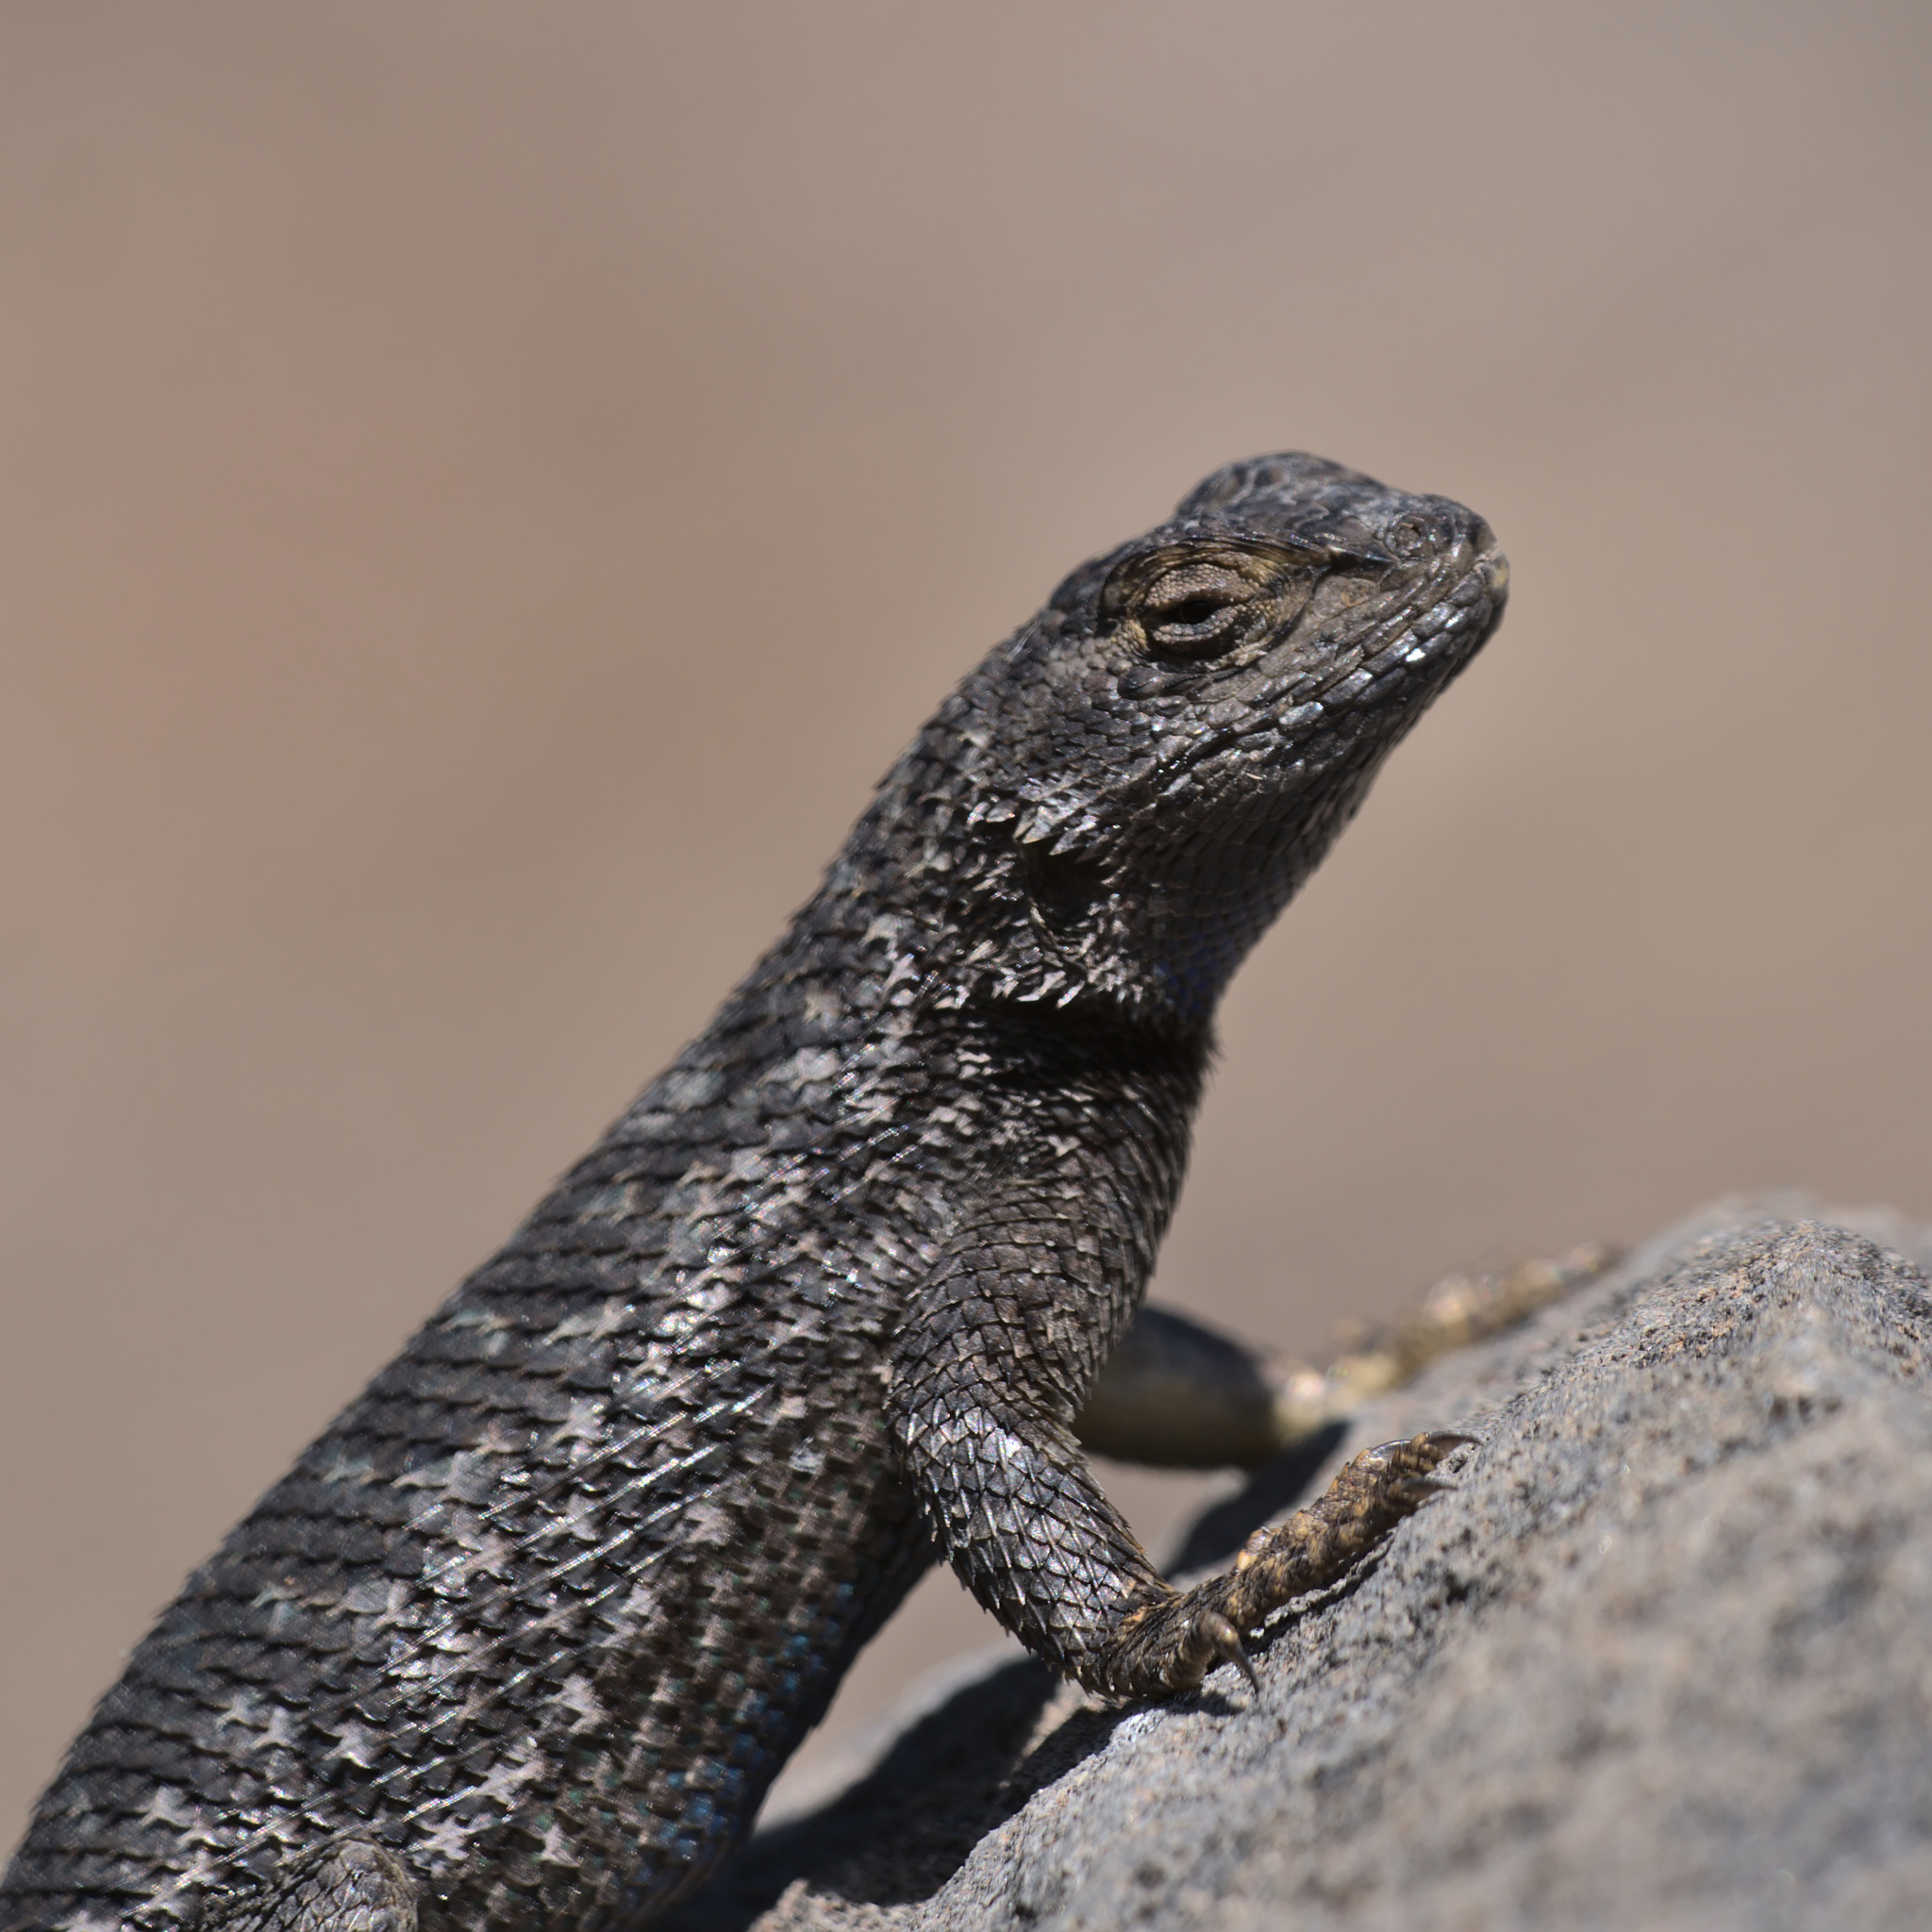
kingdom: Animalia
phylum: Chordata
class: Squamata
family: Phrynosomatidae
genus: Sceloporus
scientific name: Sceloporus occidentalis
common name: Western fence lizard
